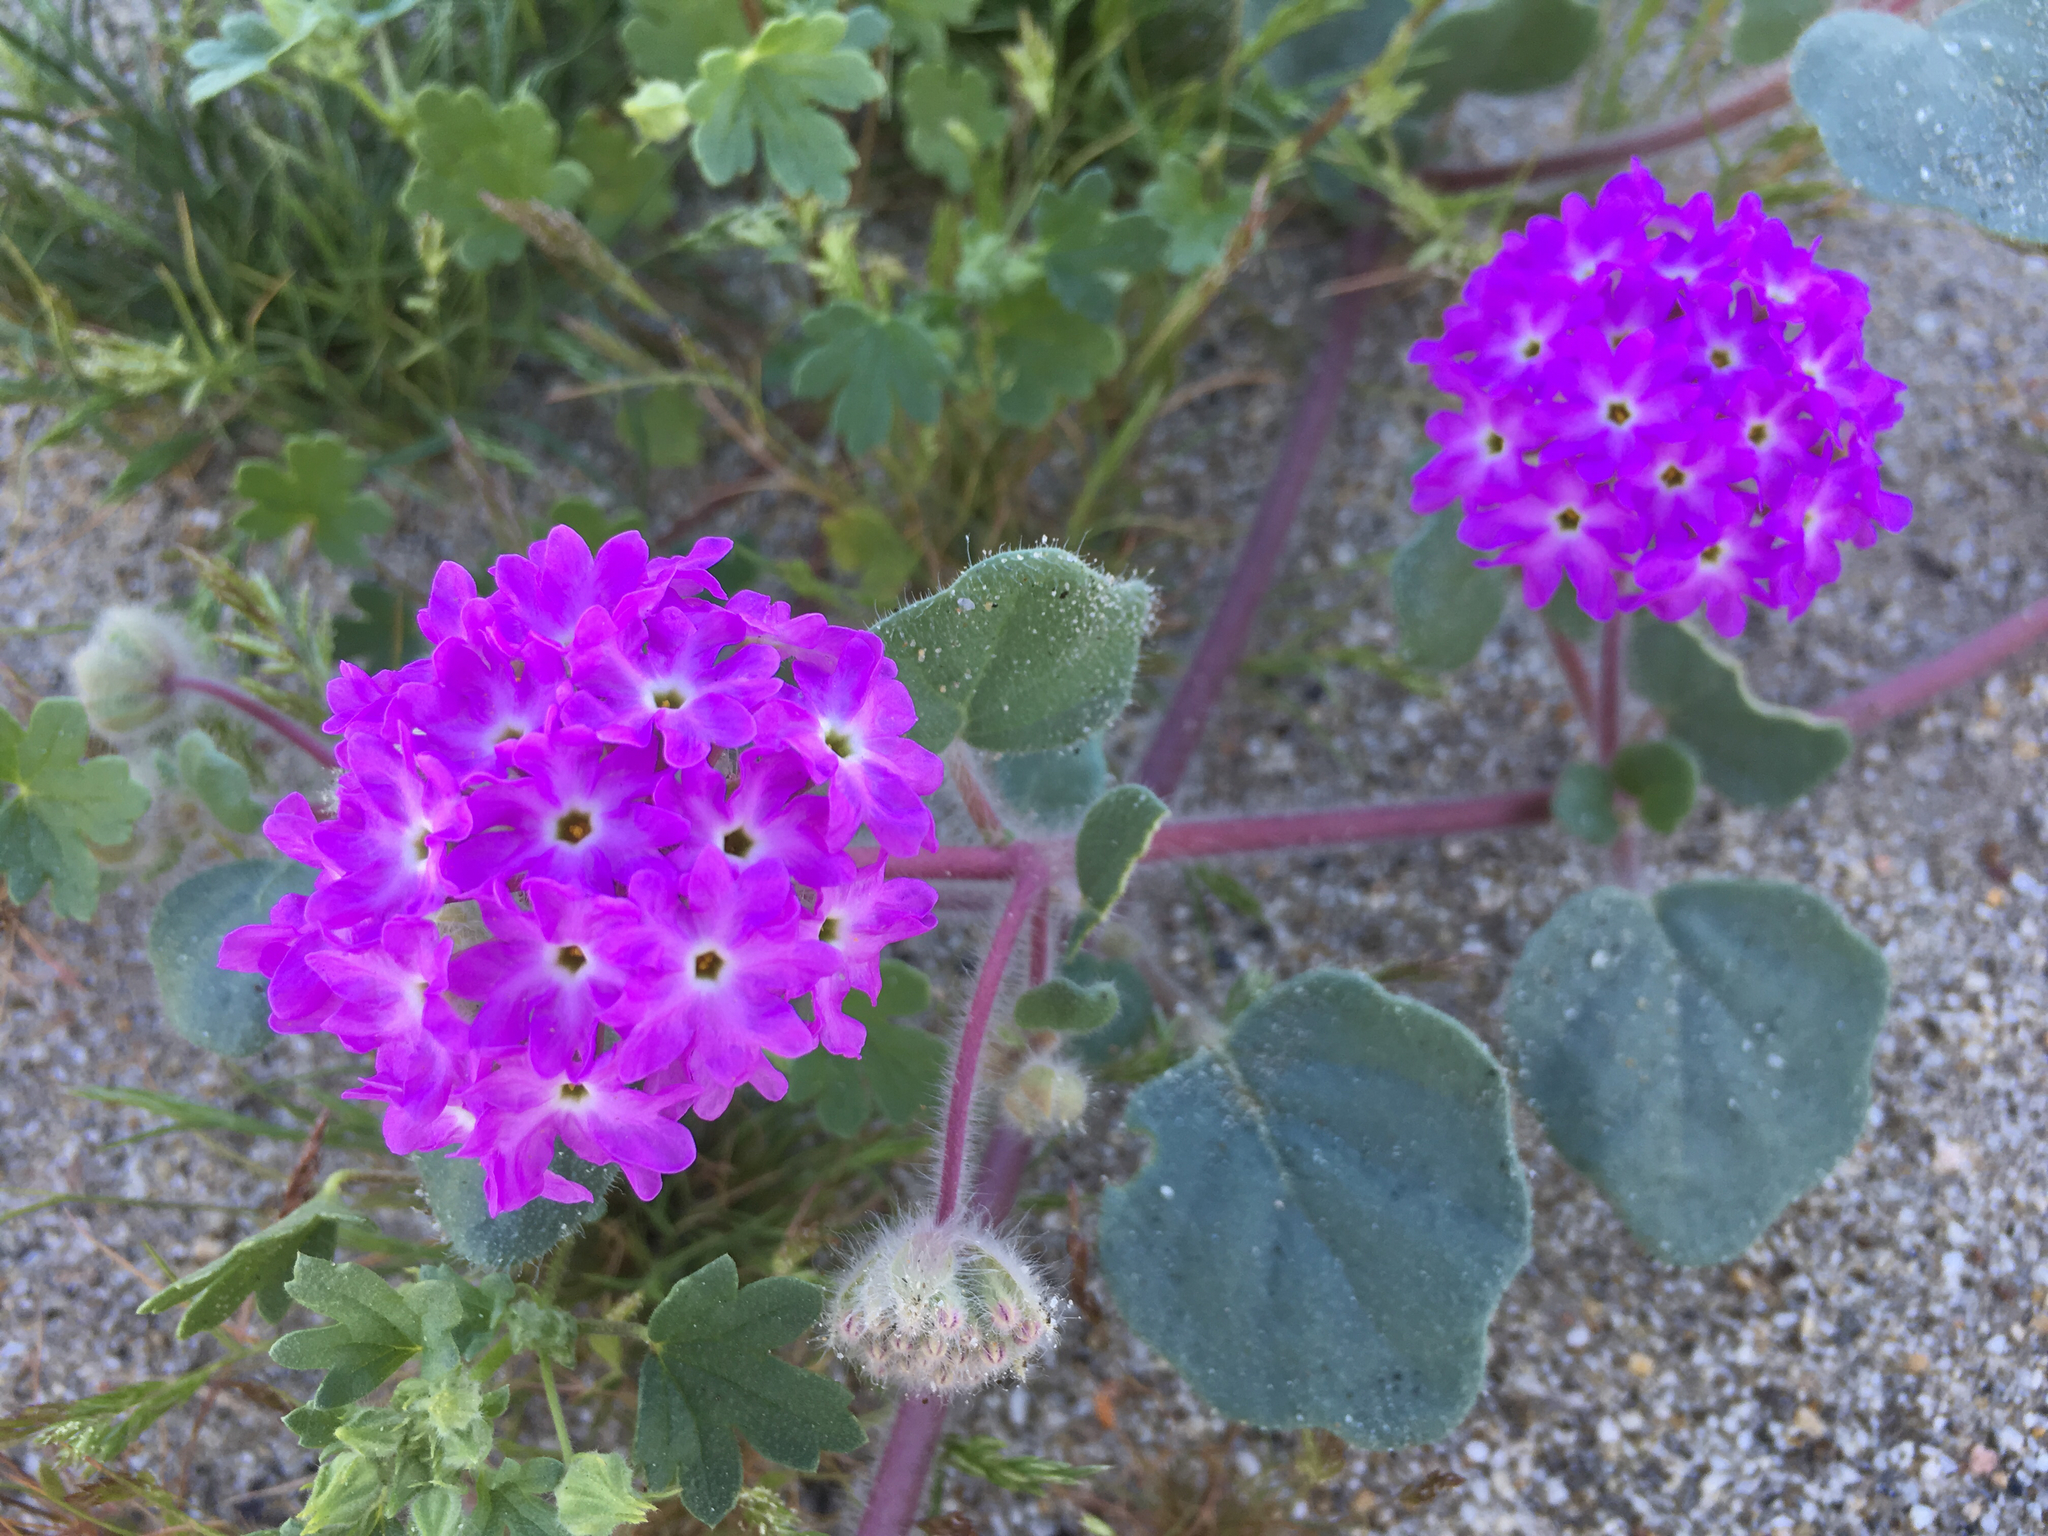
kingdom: Plantae
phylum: Tracheophyta
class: Magnoliopsida
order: Caryophyllales
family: Nyctaginaceae
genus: Abronia
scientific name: Abronia villosa
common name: Desert sand-verbena
